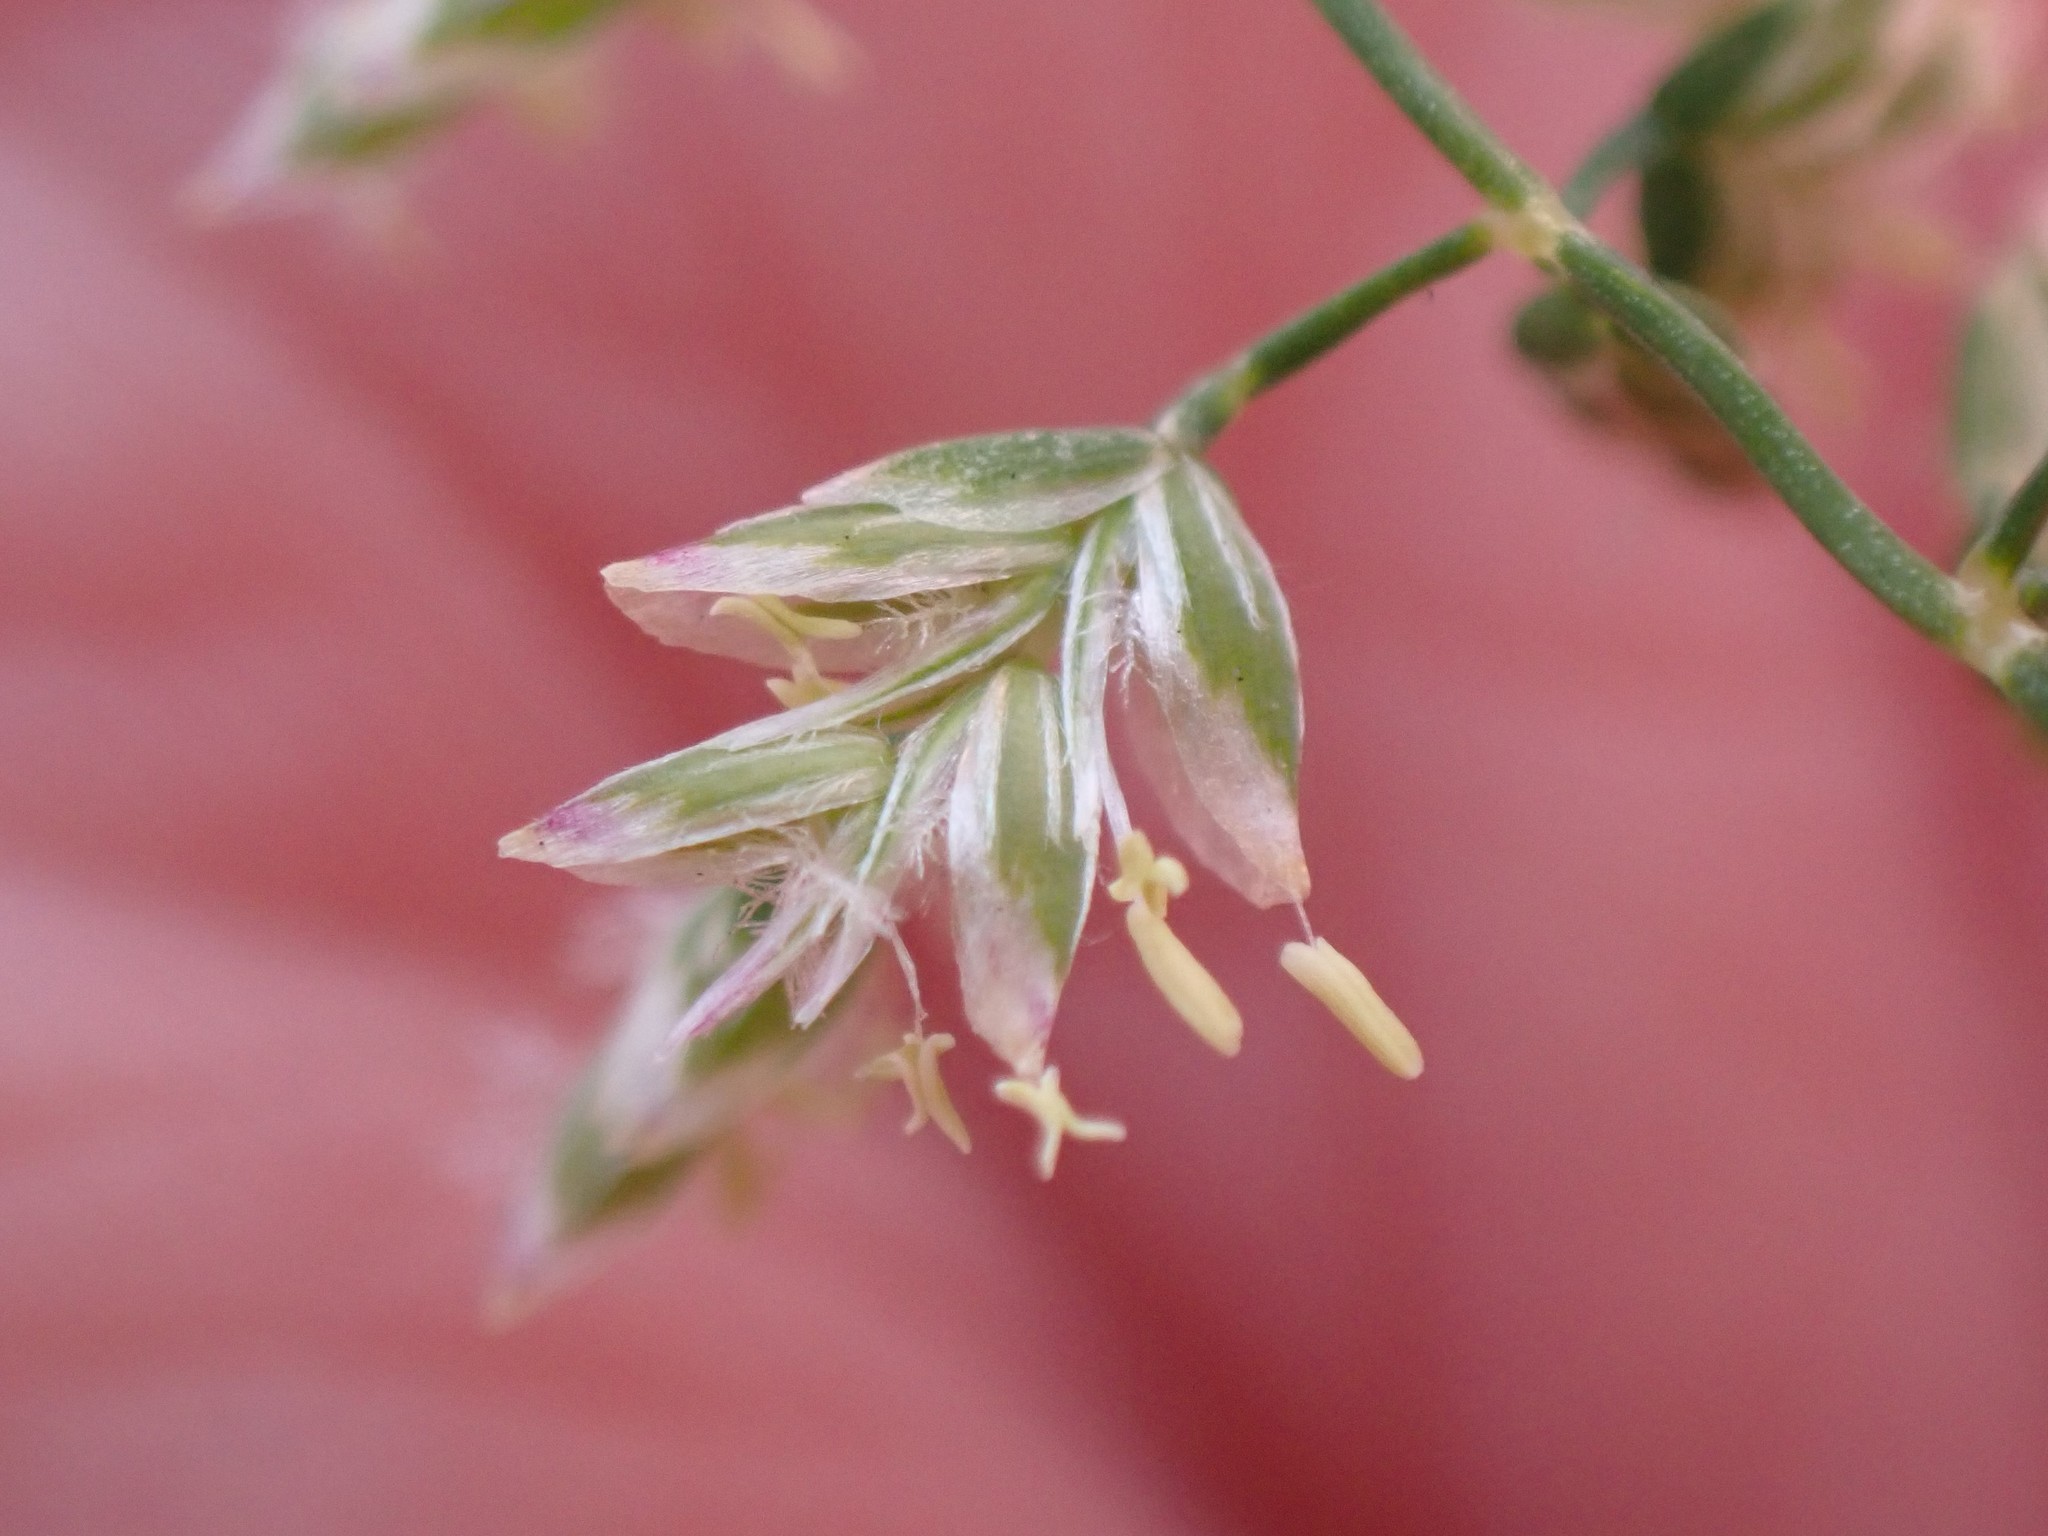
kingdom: Plantae
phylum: Tracheophyta
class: Liliopsida
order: Poales
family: Poaceae
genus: Poa
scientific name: Poa annua
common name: Annual bluegrass
